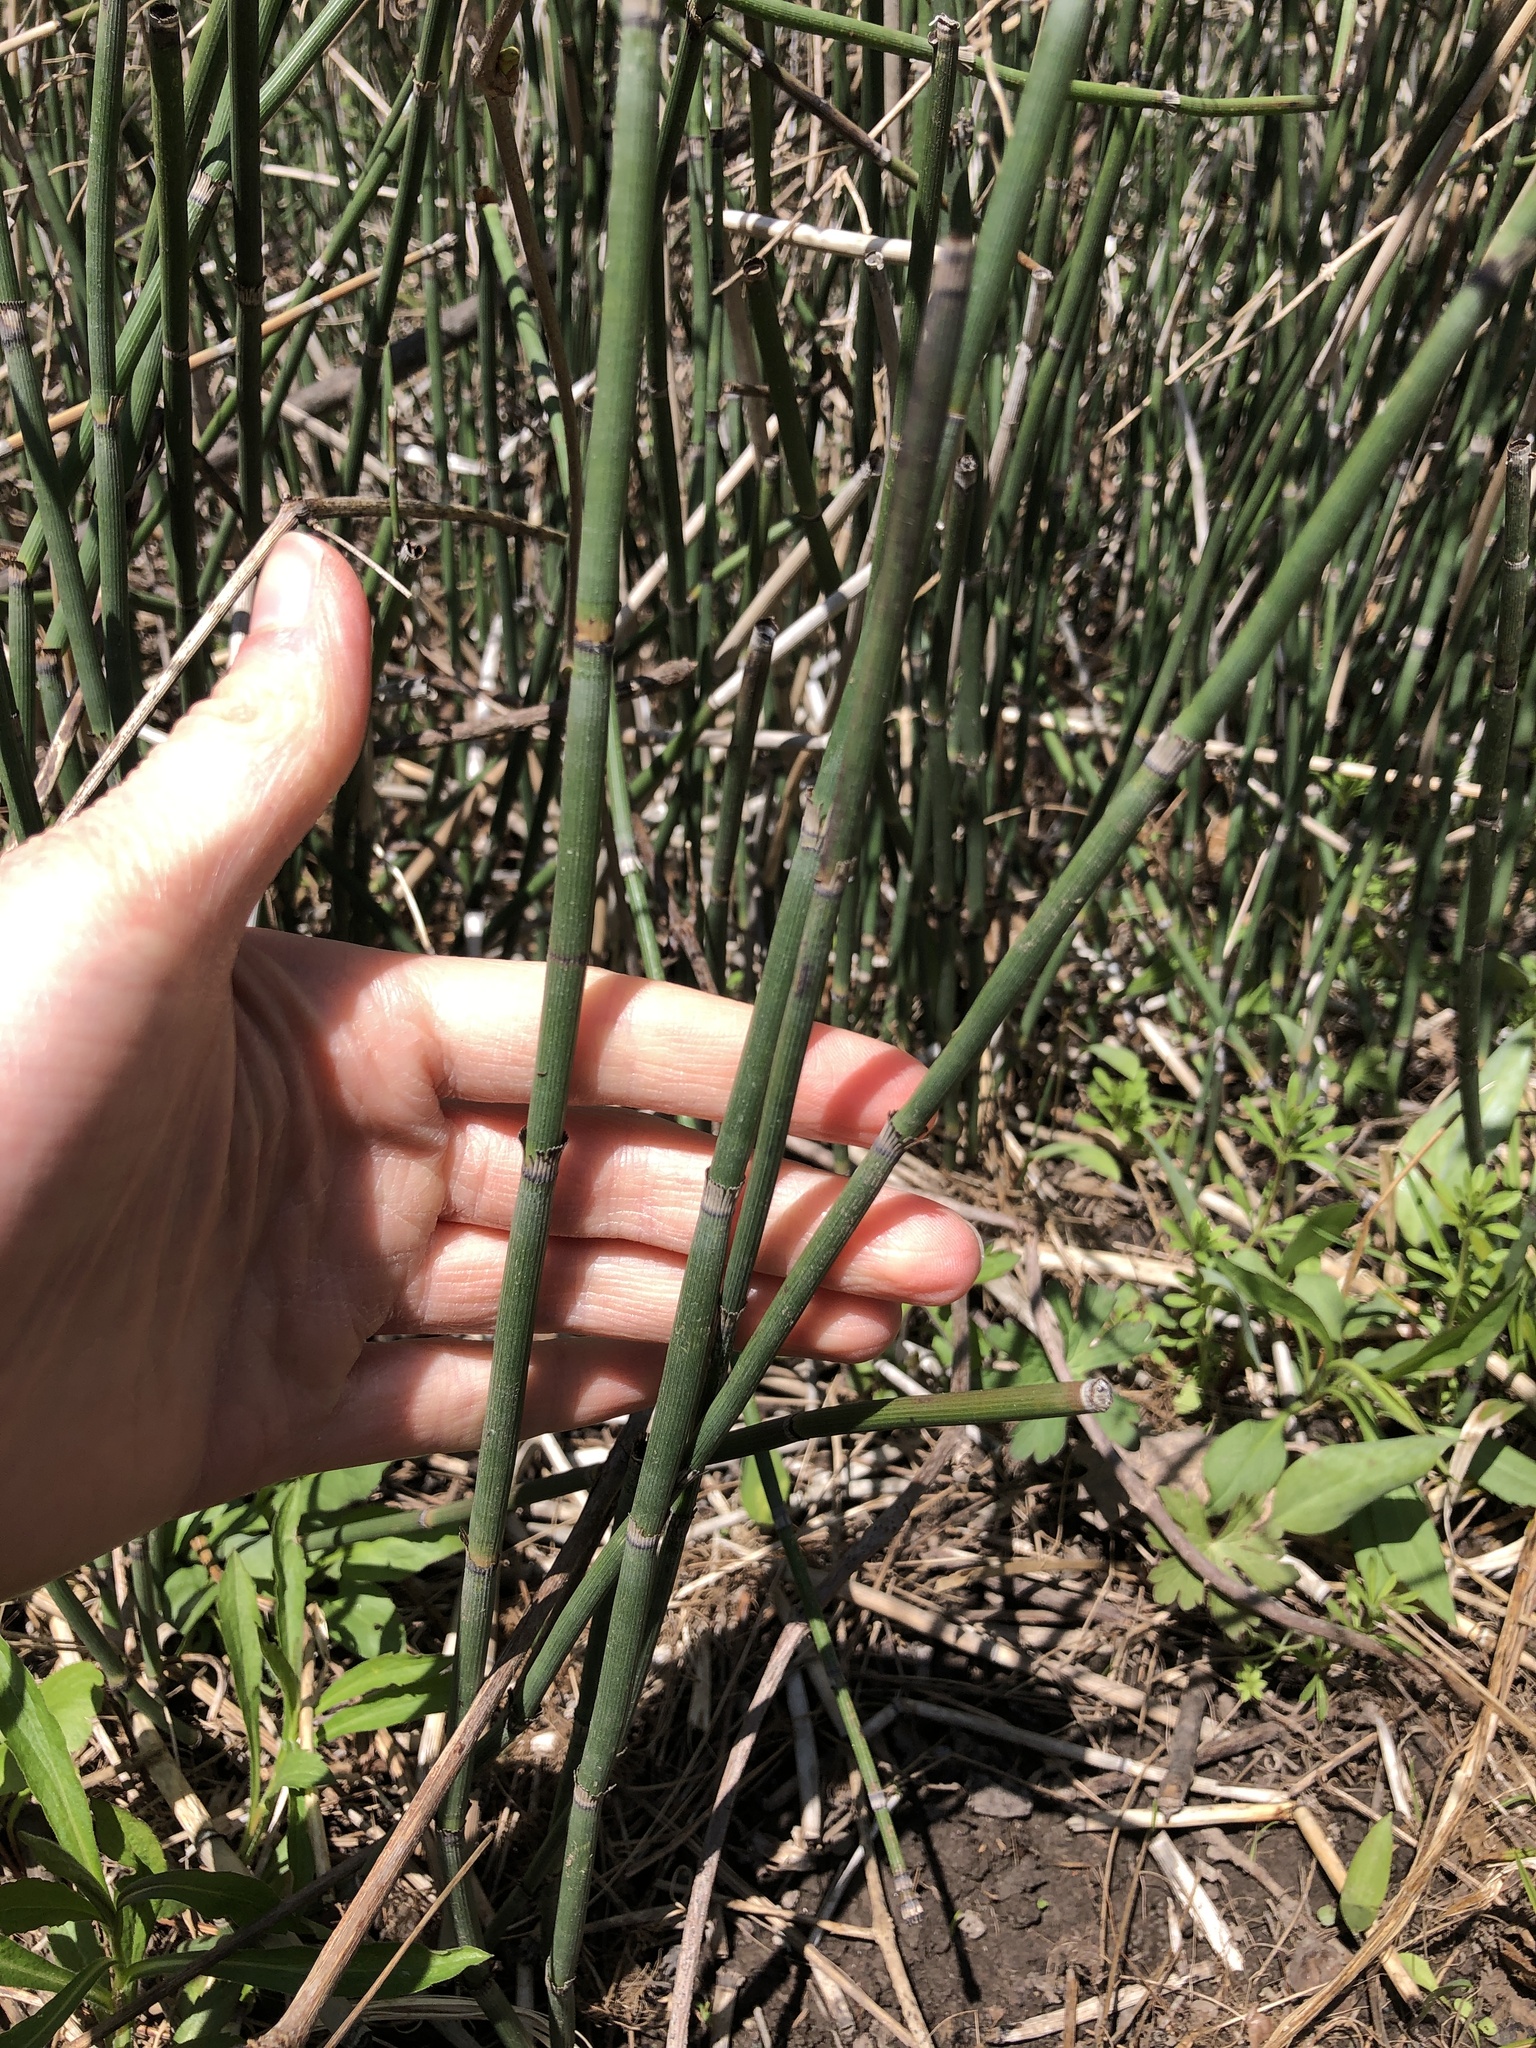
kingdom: Plantae
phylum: Tracheophyta
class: Polypodiopsida
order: Equisetales
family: Equisetaceae
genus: Equisetum
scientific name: Equisetum praealtum
